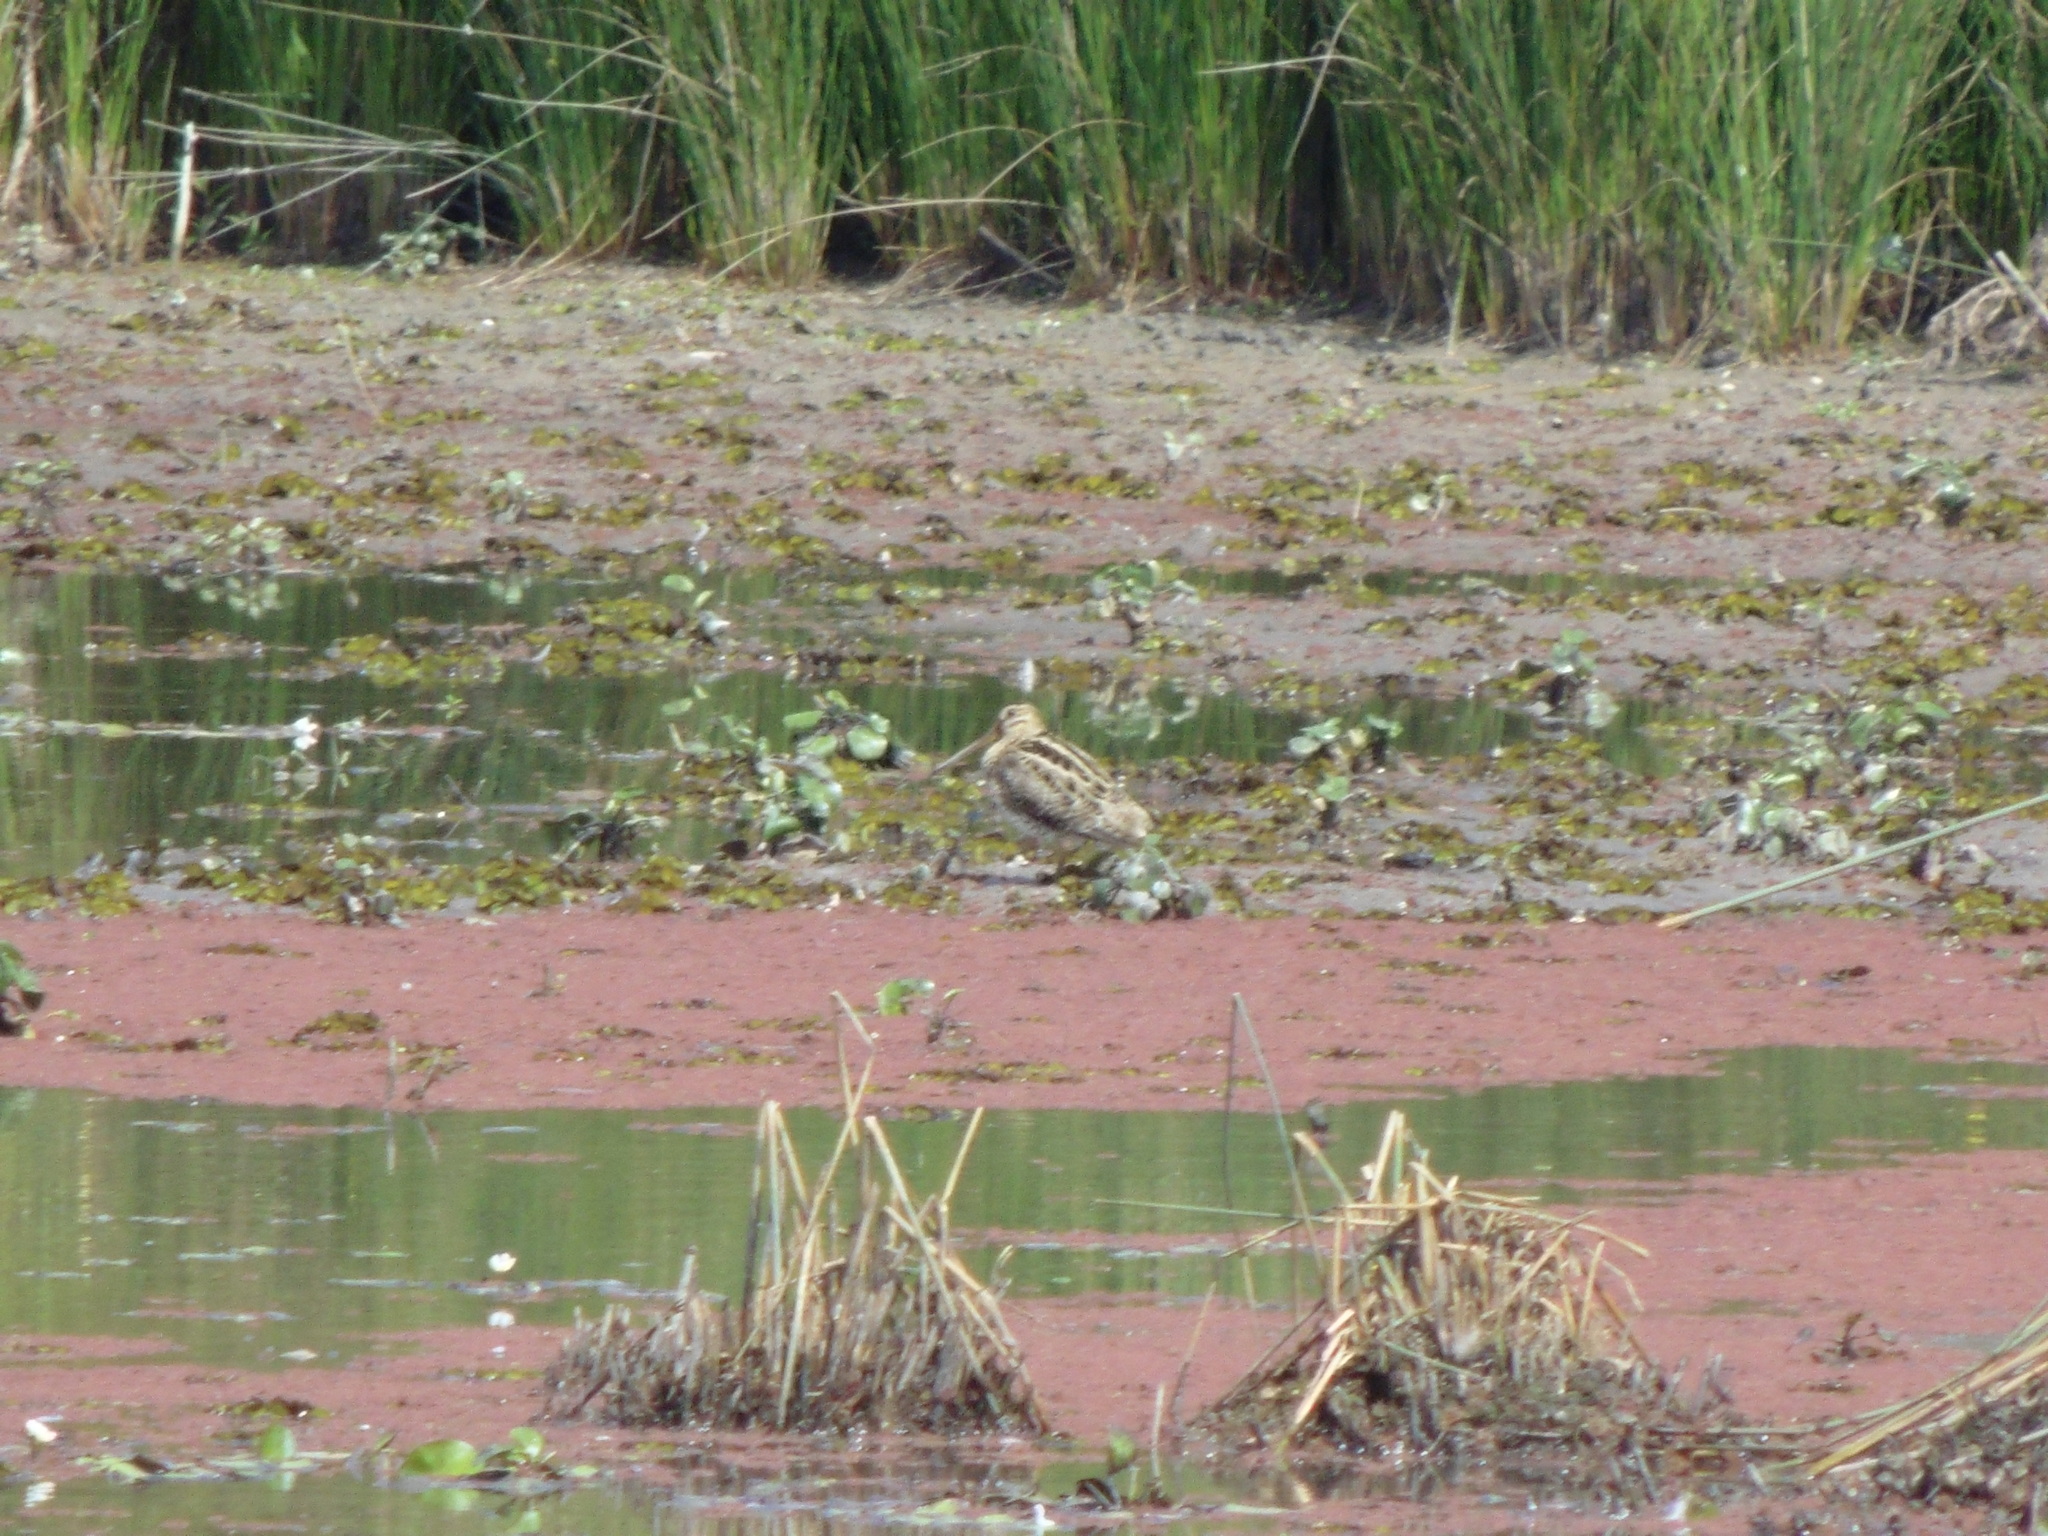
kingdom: Animalia
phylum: Chordata
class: Aves
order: Charadriiformes
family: Scolopacidae
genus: Gallinago
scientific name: Gallinago hardwickii
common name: Latham's snipe
